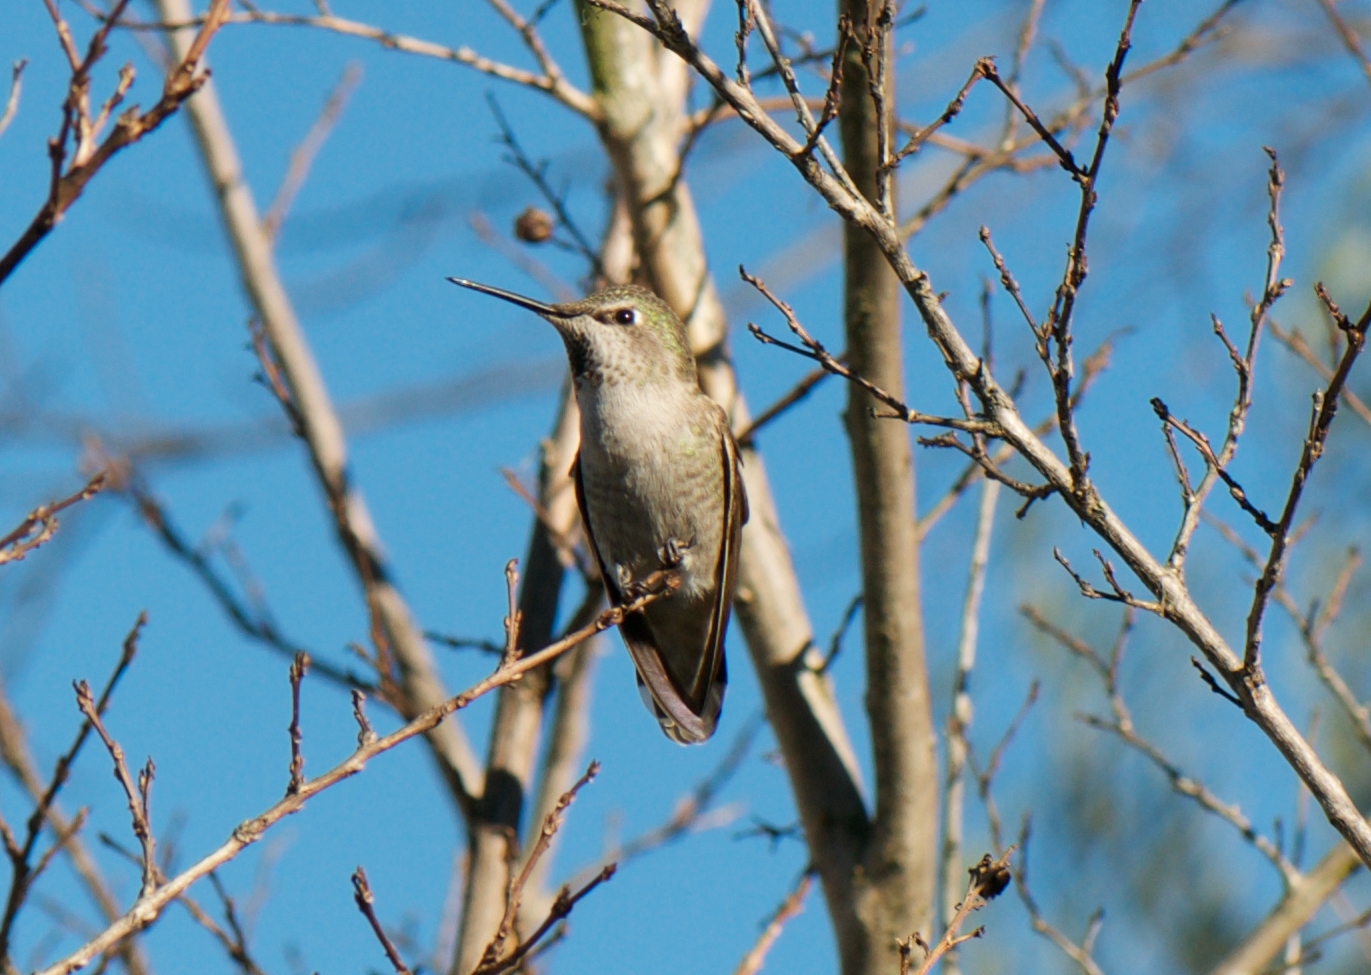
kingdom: Animalia
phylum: Chordata
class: Aves
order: Apodiformes
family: Trochilidae
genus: Calypte
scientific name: Calypte anna
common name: Anna's hummingbird
